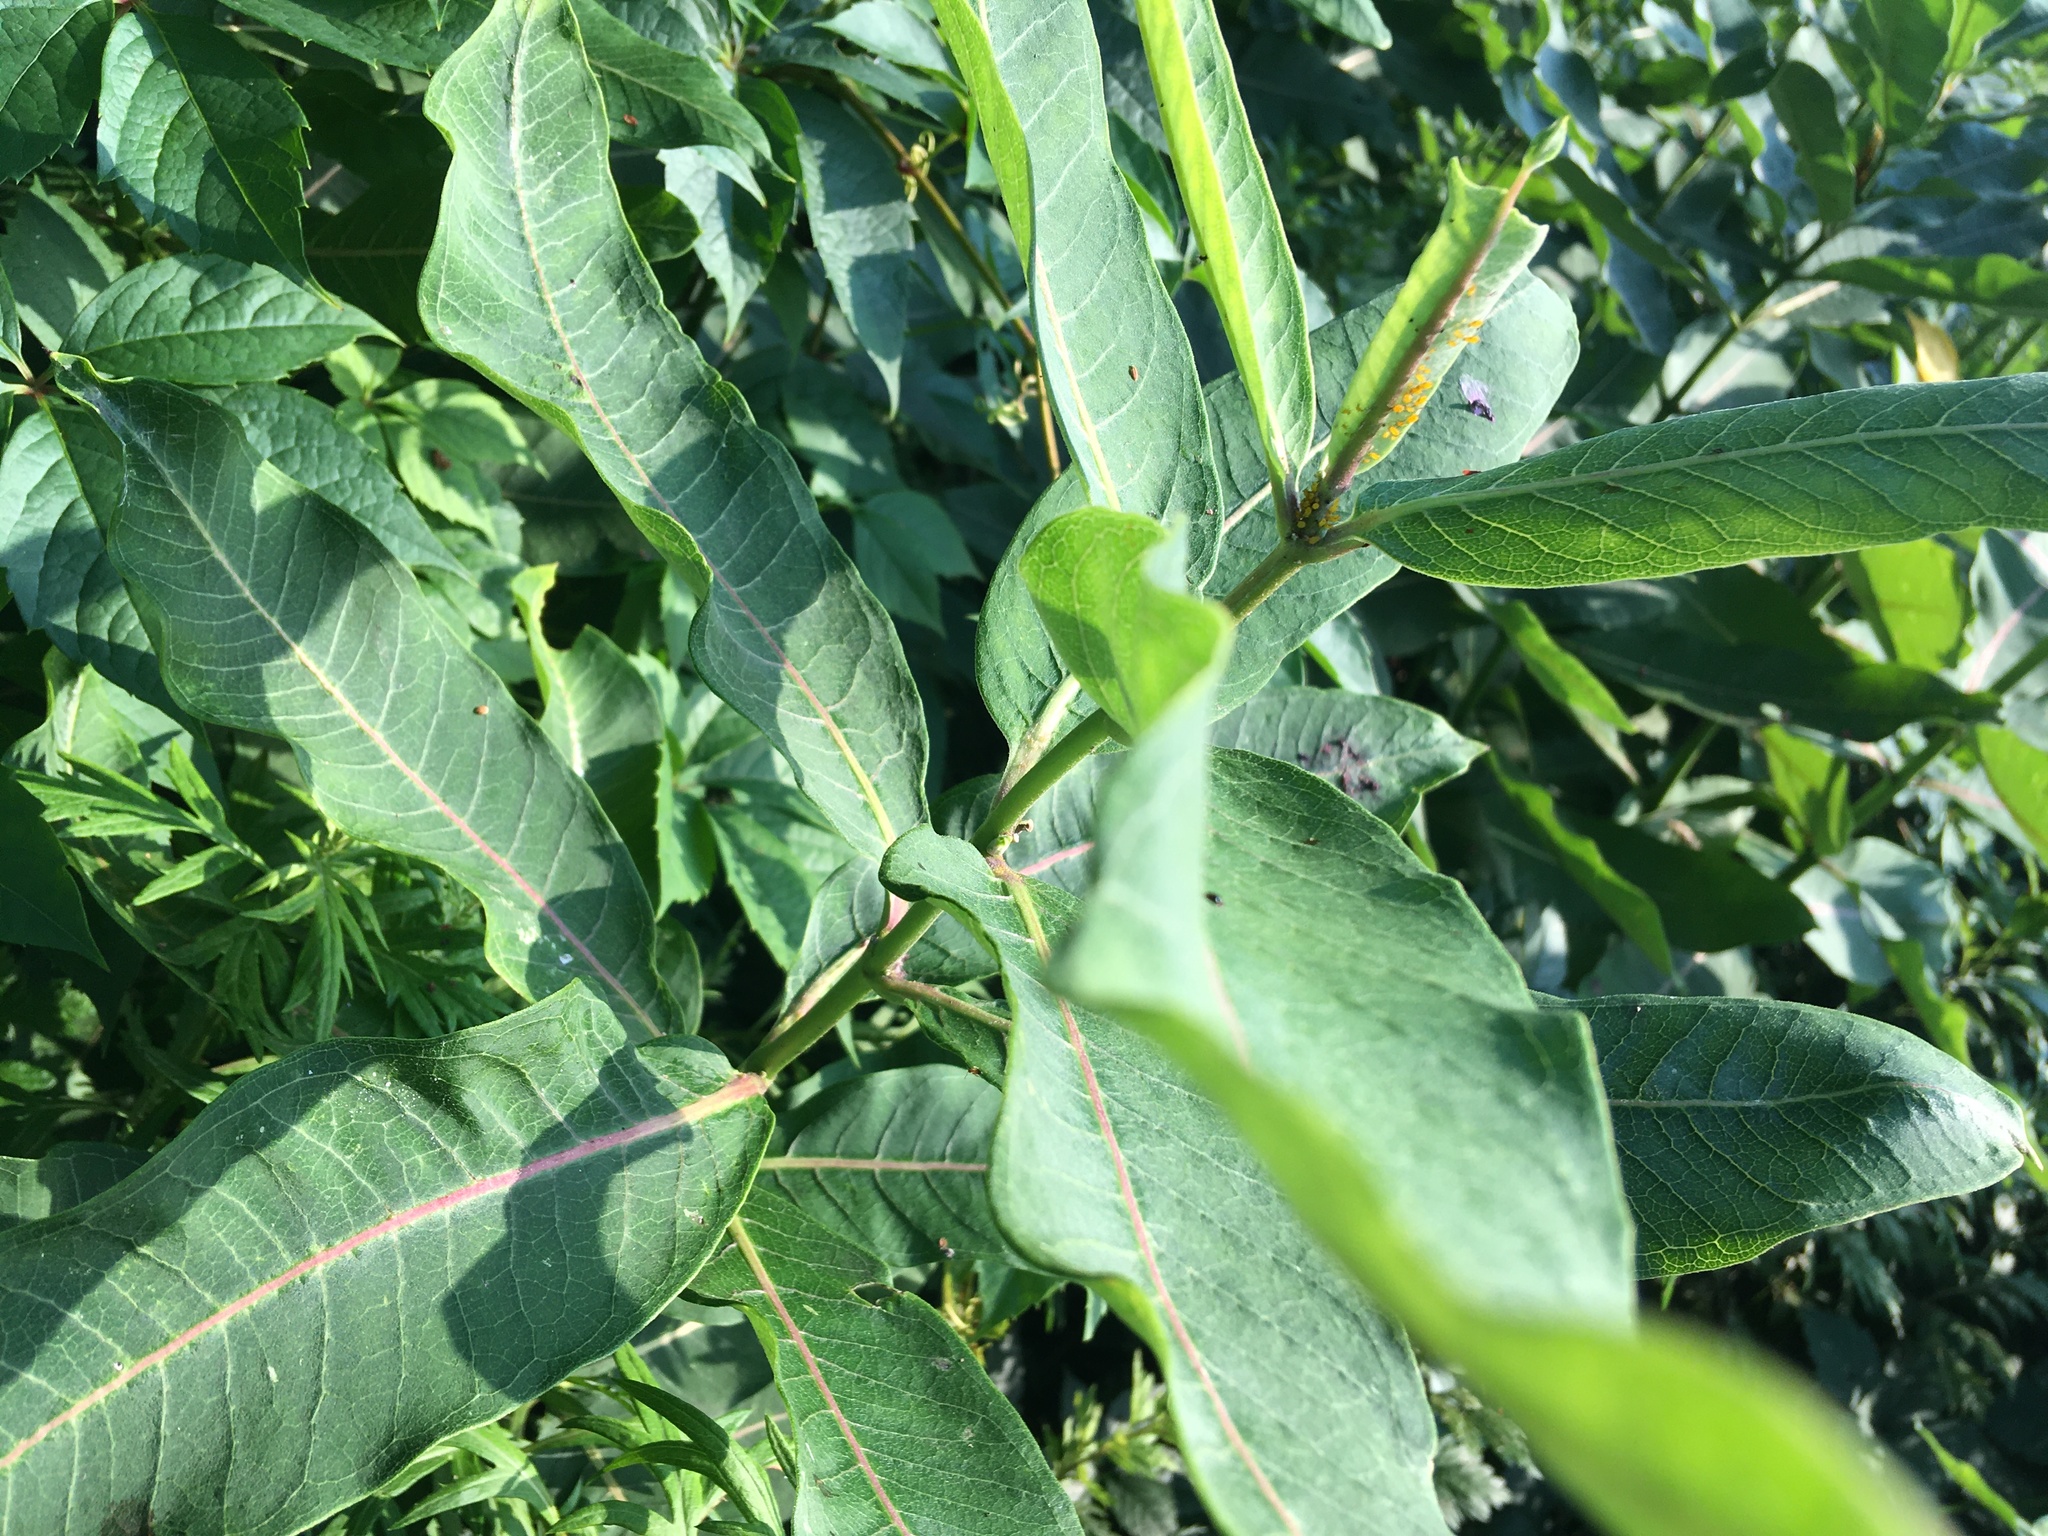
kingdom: Plantae
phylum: Tracheophyta
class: Magnoliopsida
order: Gentianales
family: Apocynaceae
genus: Asclepias
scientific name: Asclepias syriaca
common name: Common milkweed
